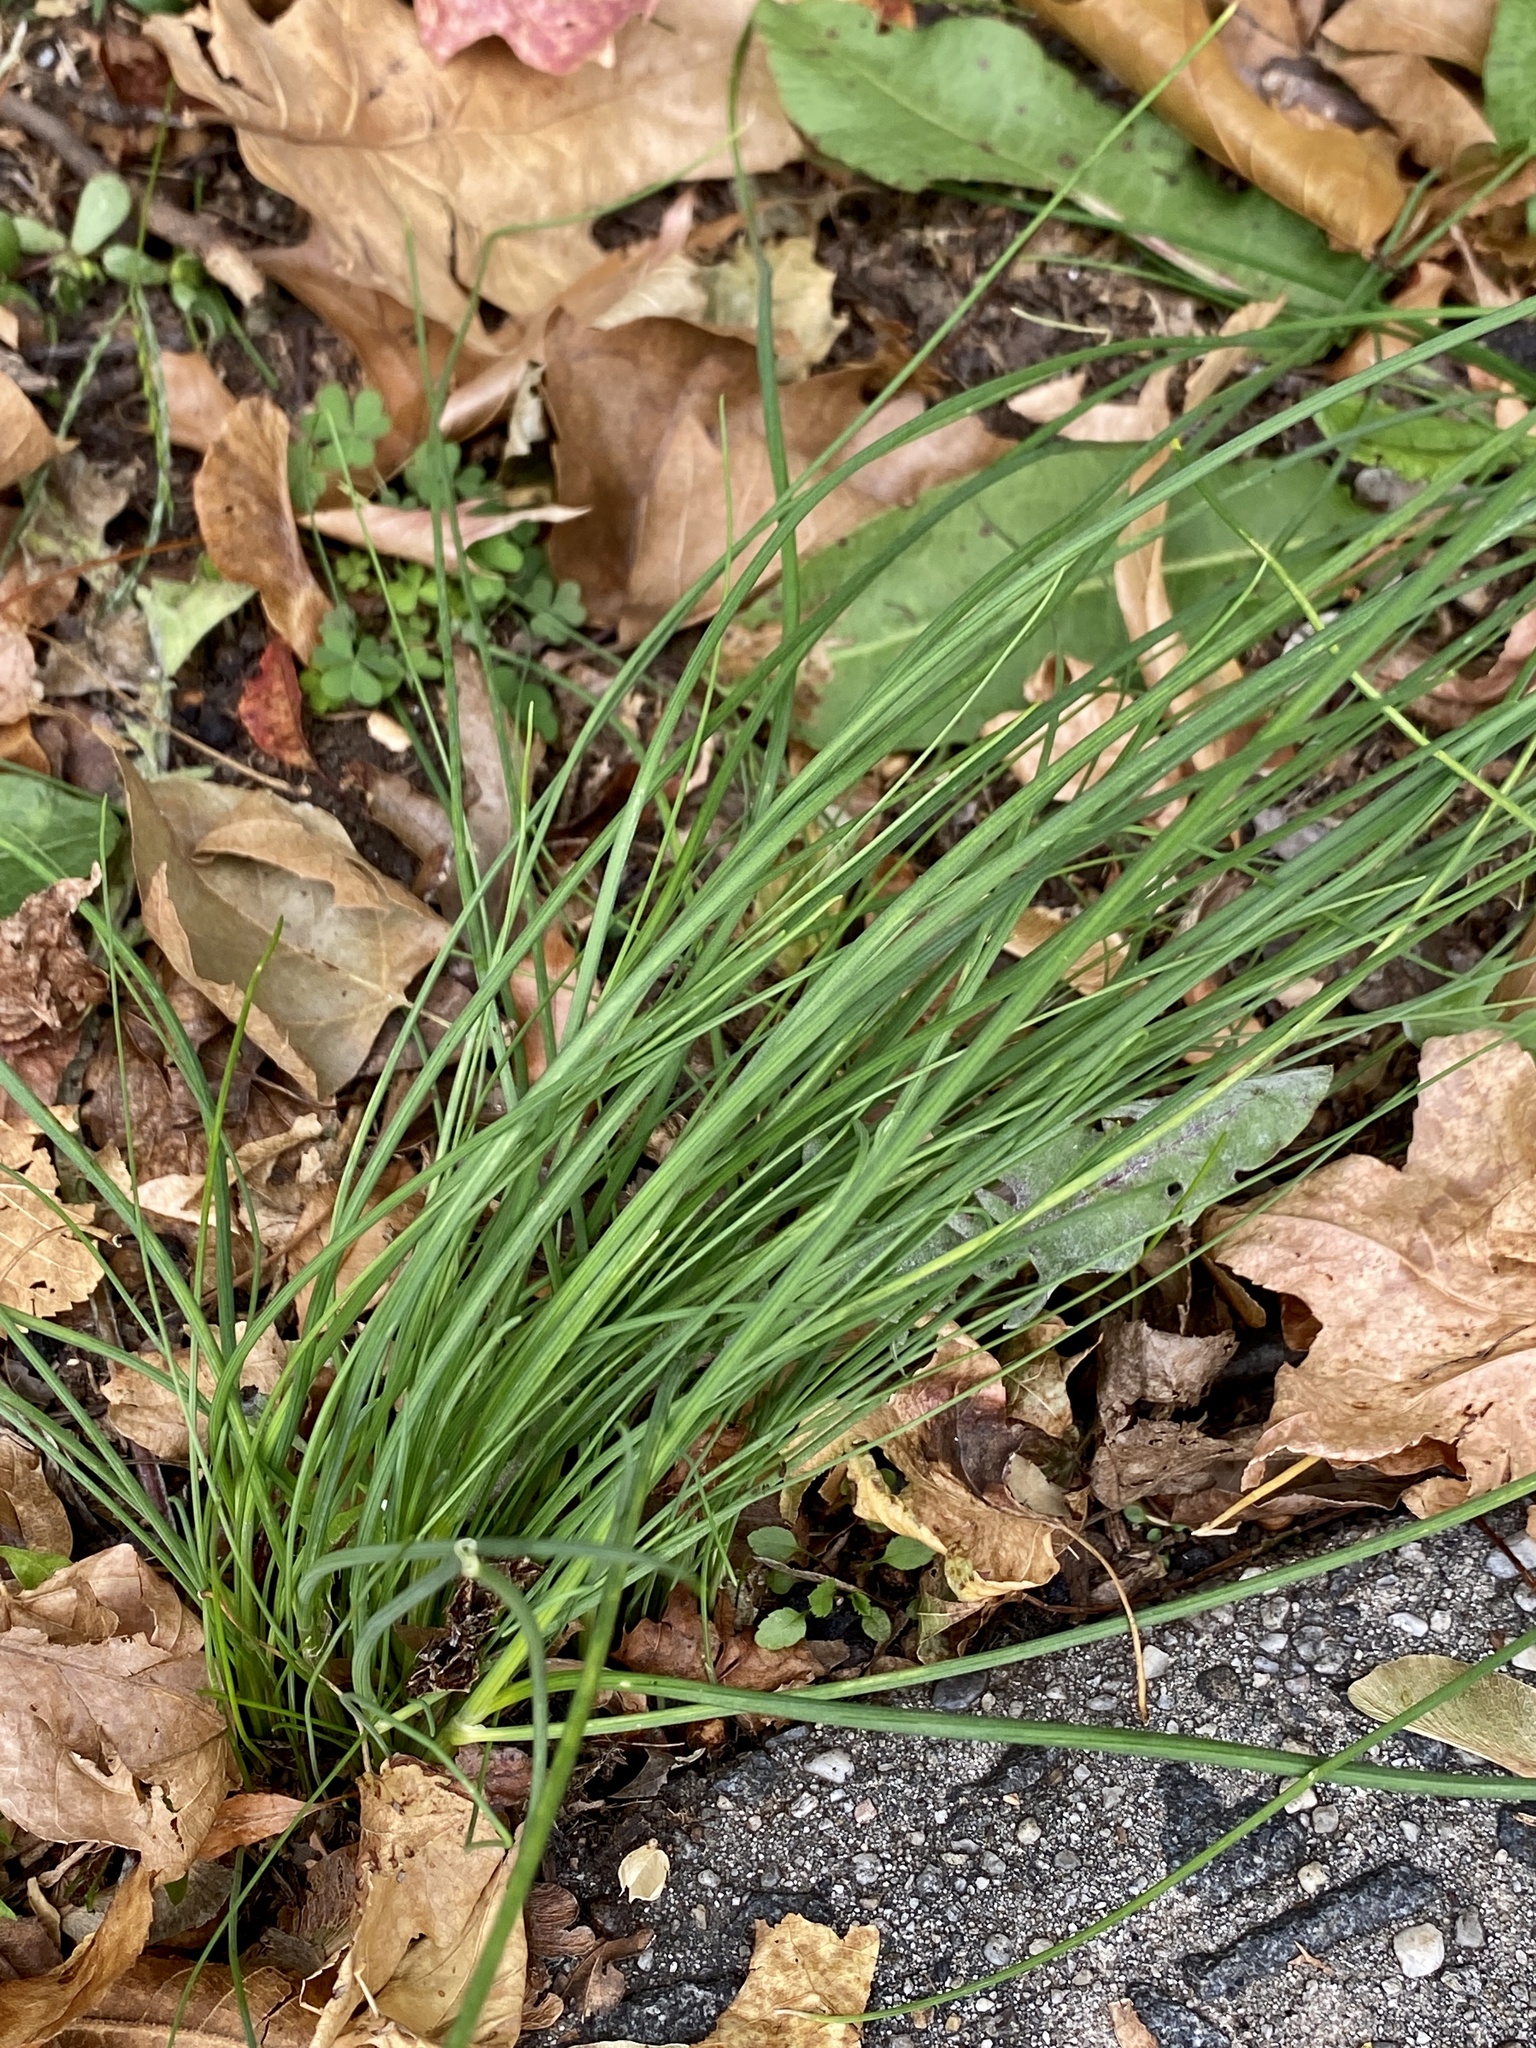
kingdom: Plantae
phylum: Tracheophyta
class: Liliopsida
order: Asparagales
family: Amaryllidaceae
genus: Allium
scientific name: Allium vineale
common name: Crow garlic
